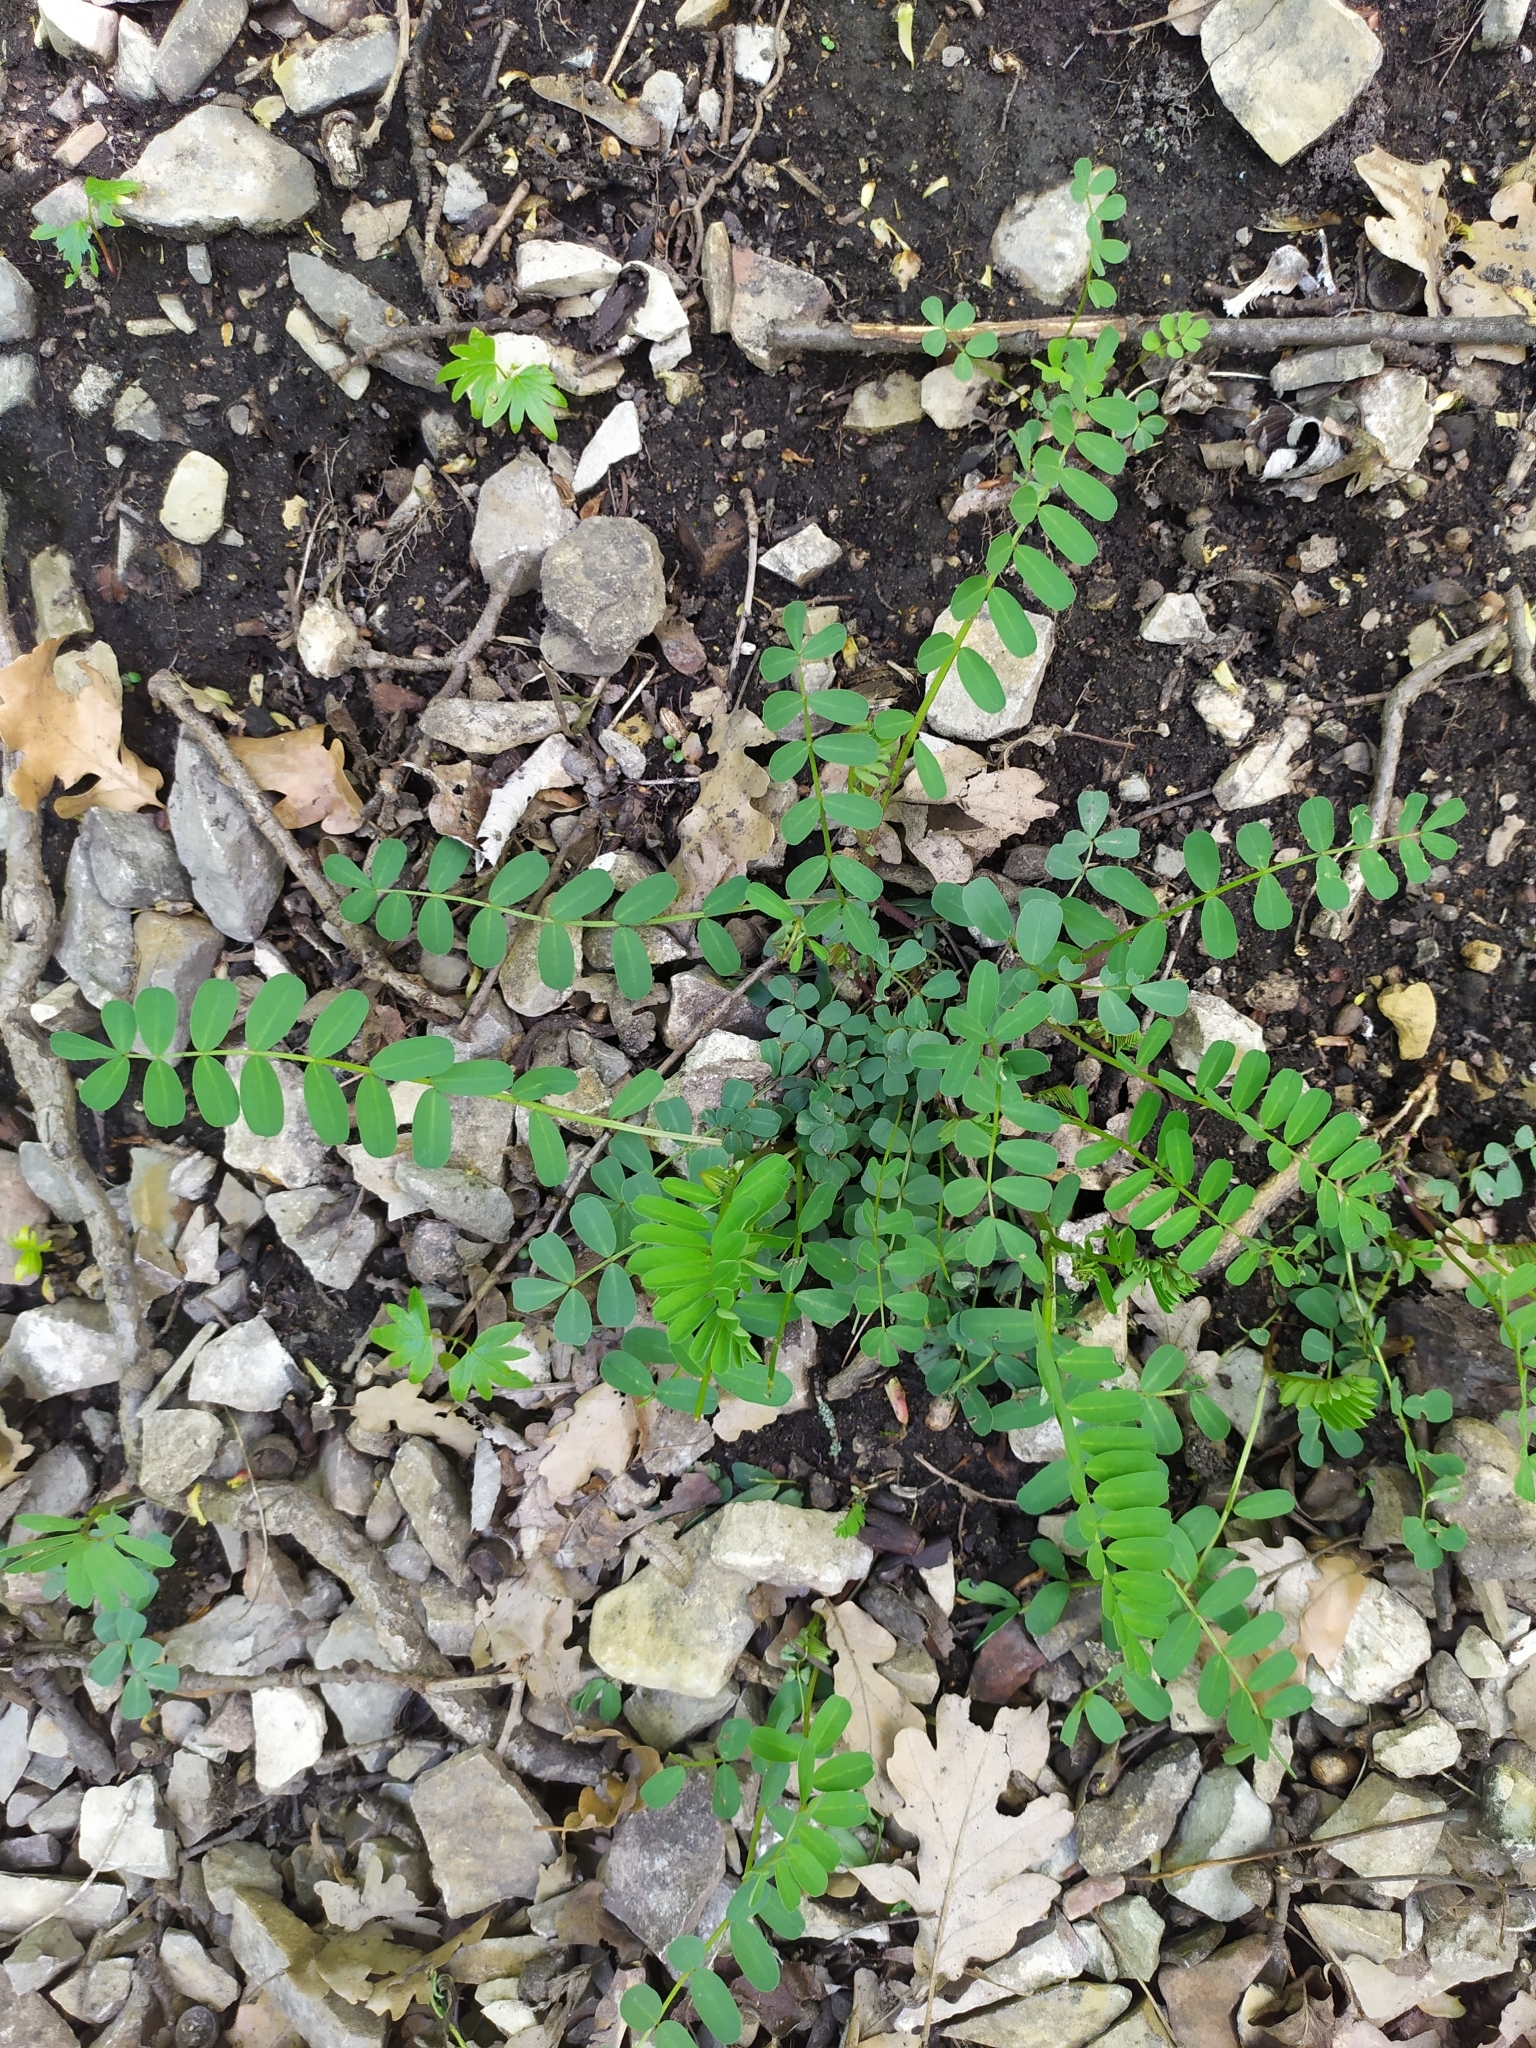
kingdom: Plantae
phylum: Tracheophyta
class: Magnoliopsida
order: Fabales
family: Fabaceae
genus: Coronilla
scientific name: Coronilla varia
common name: Crownvetch
